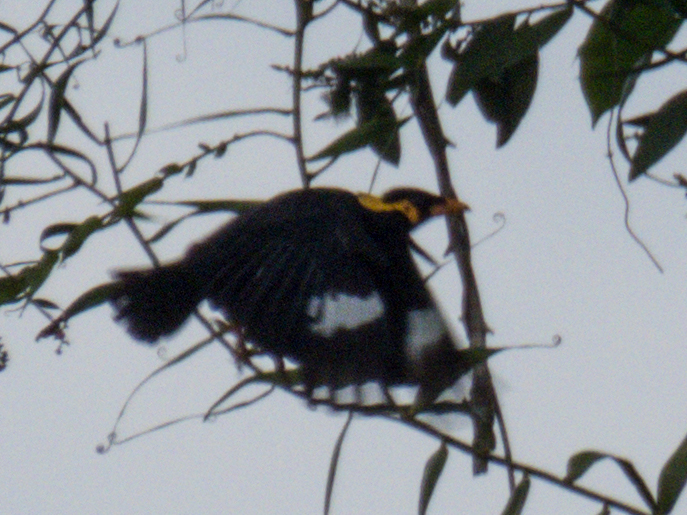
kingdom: Animalia
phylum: Chordata
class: Aves
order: Passeriformes
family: Sturnidae
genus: Gracula
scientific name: Gracula religiosa
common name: Common hill myna
